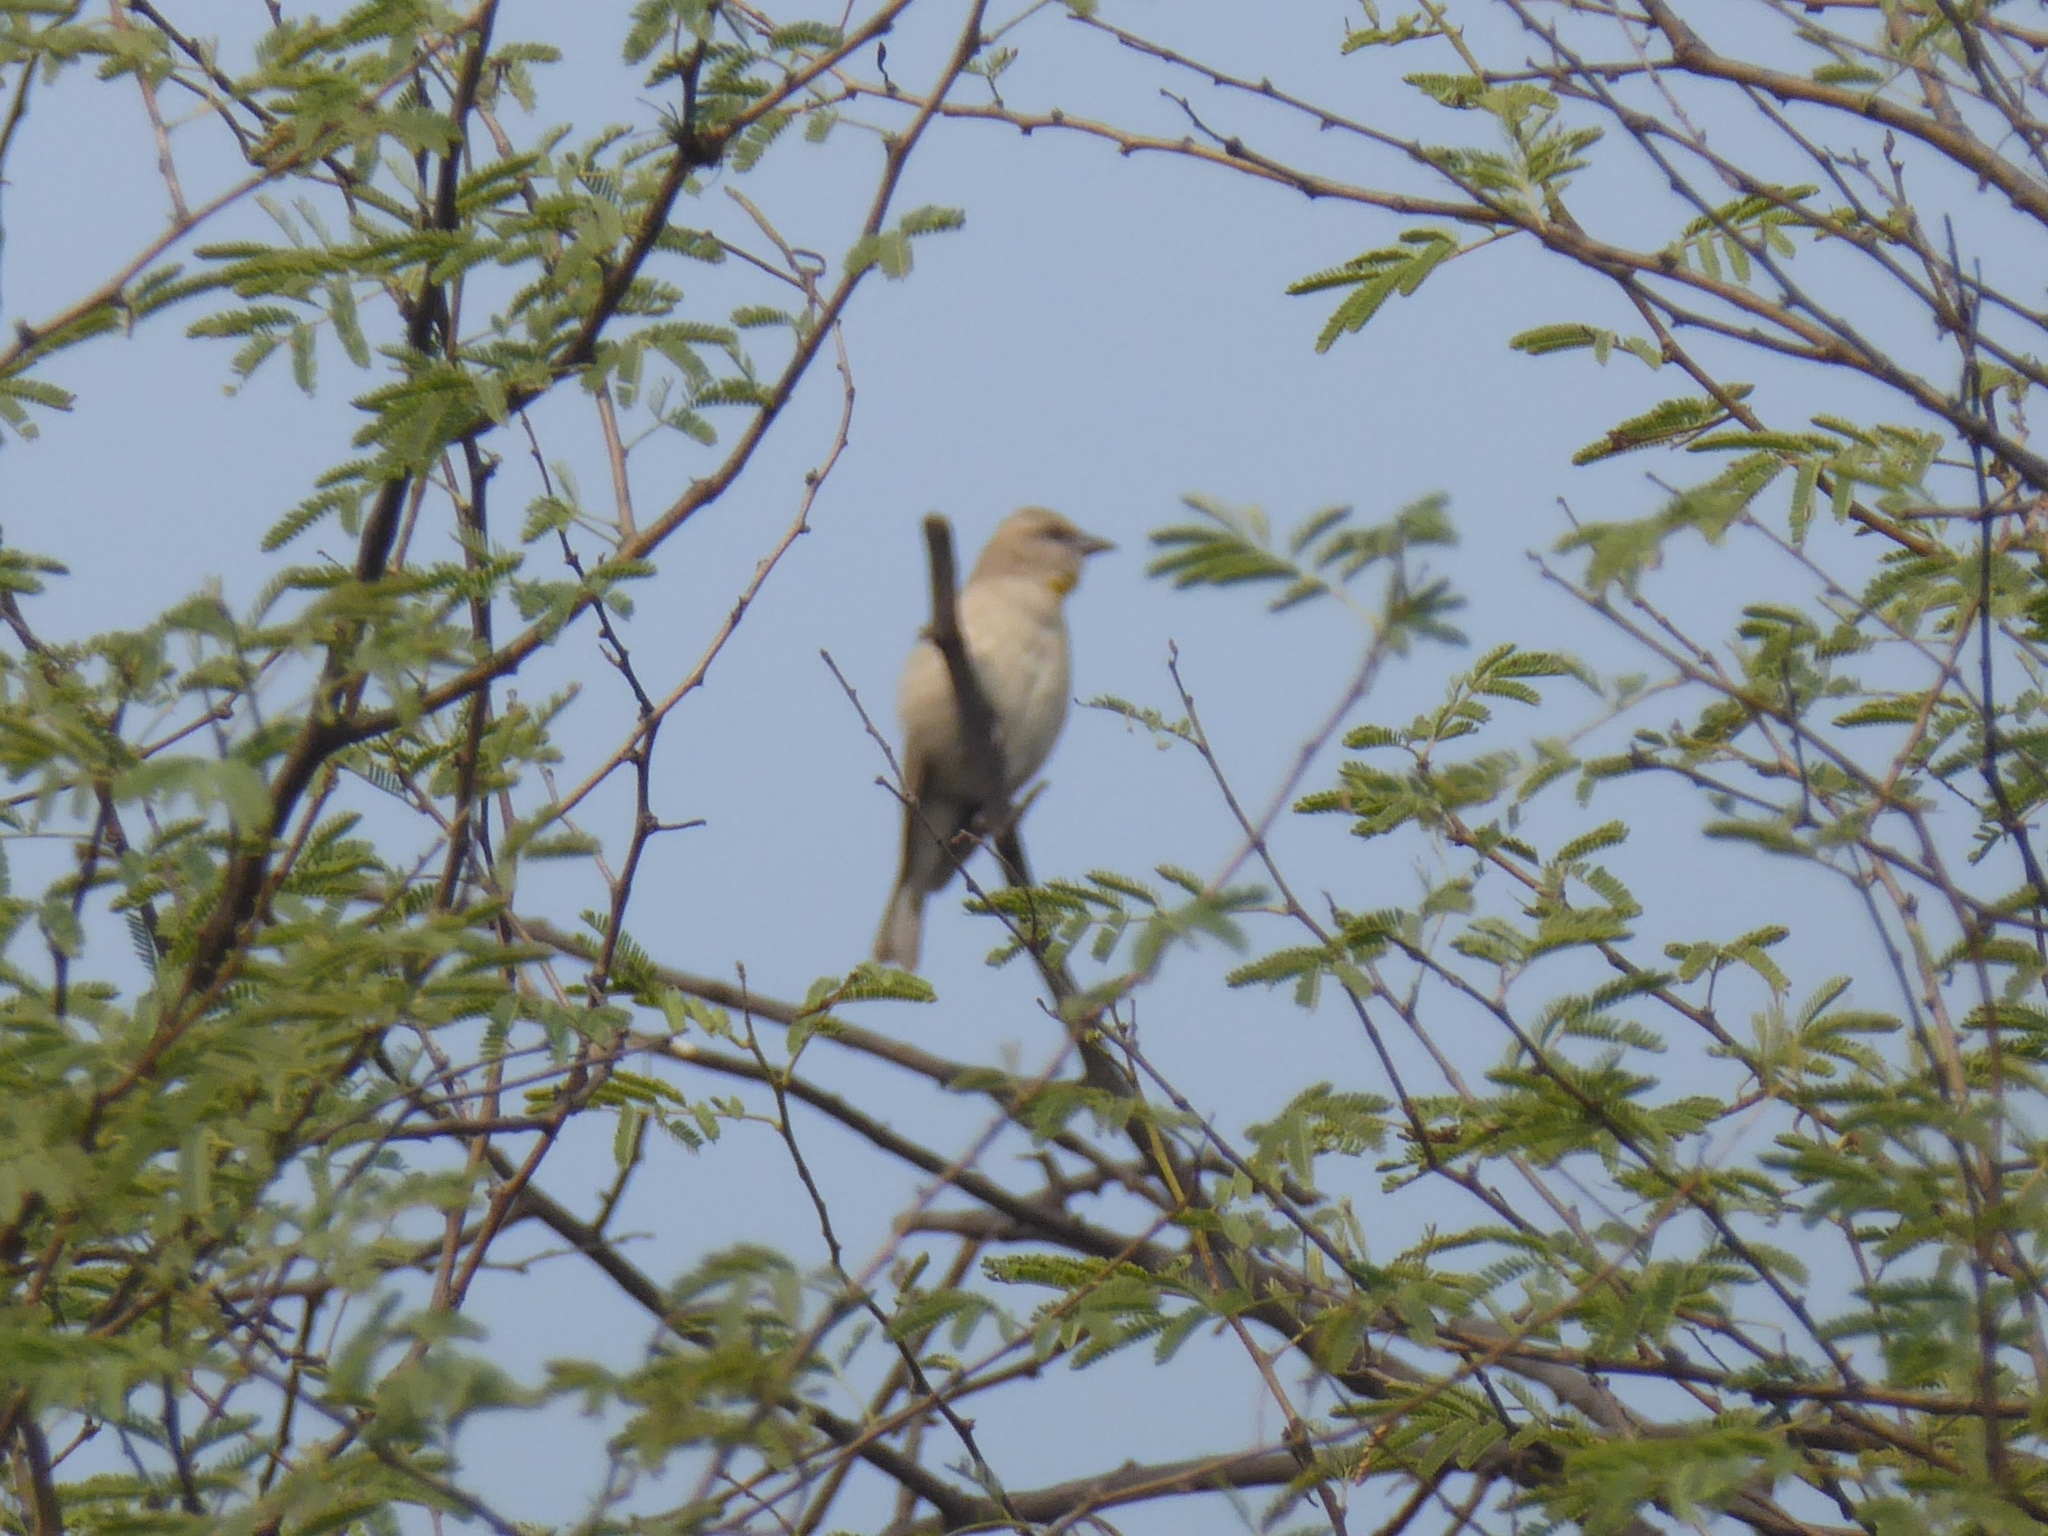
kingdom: Animalia
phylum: Chordata
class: Aves
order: Passeriformes
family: Passeridae
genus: Gymnoris
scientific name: Gymnoris xanthocollis
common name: Yellow-throated sparrow
